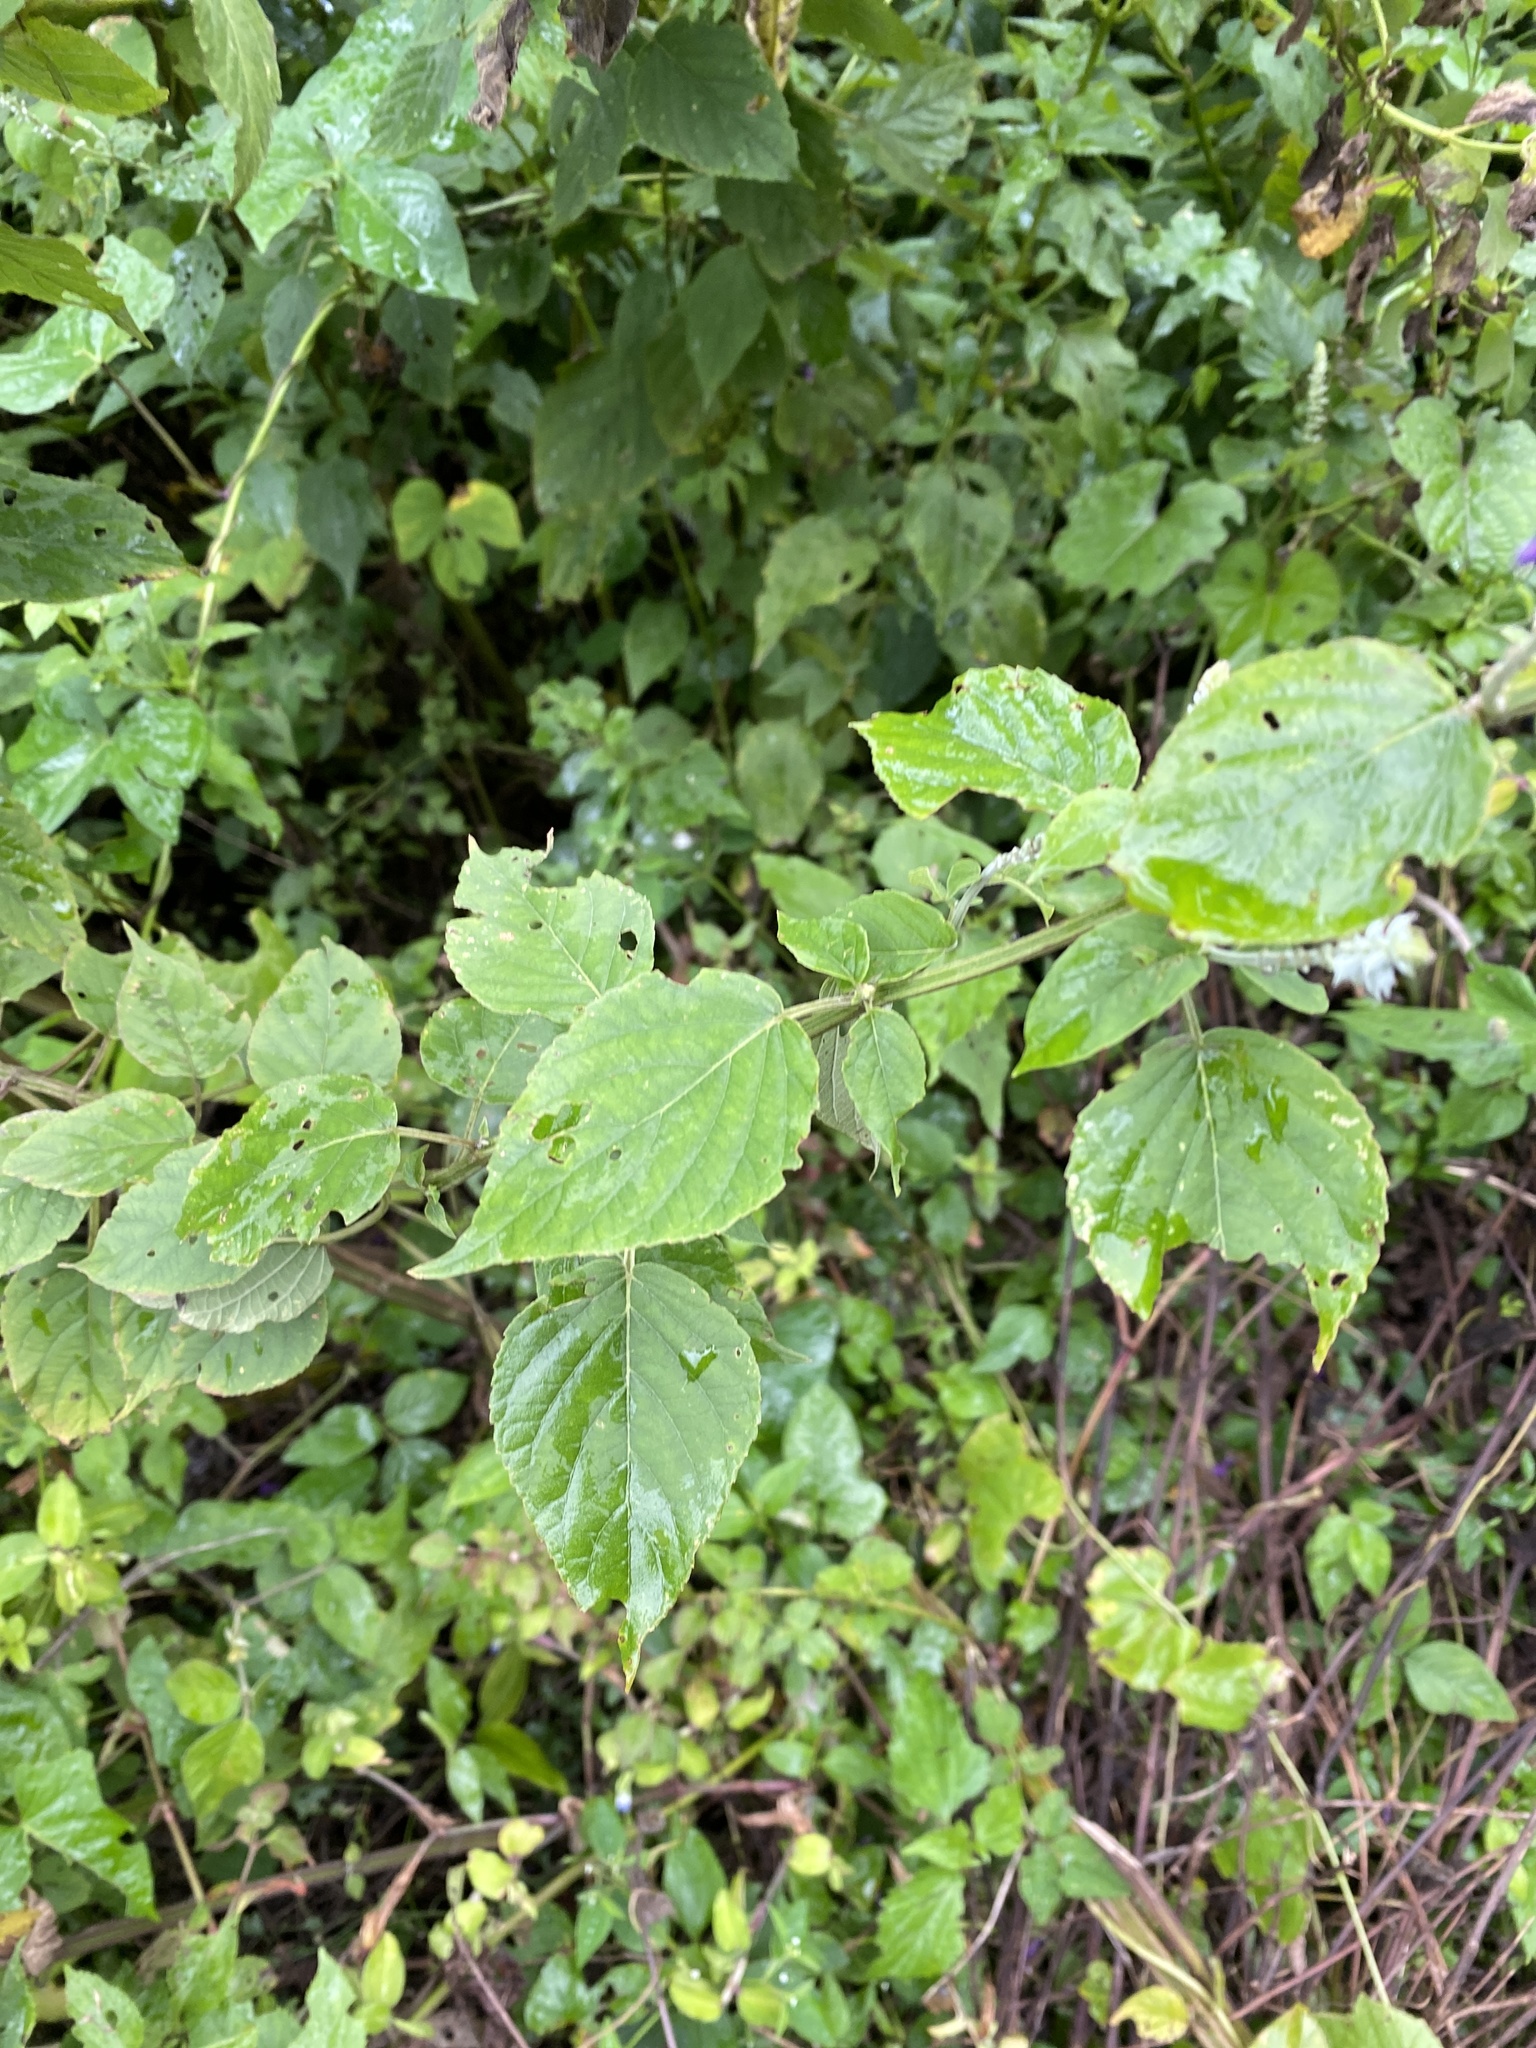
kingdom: Plantae
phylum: Tracheophyta
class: Magnoliopsida
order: Lamiales
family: Lamiaceae
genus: Salvia
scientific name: Salvia purpurea
